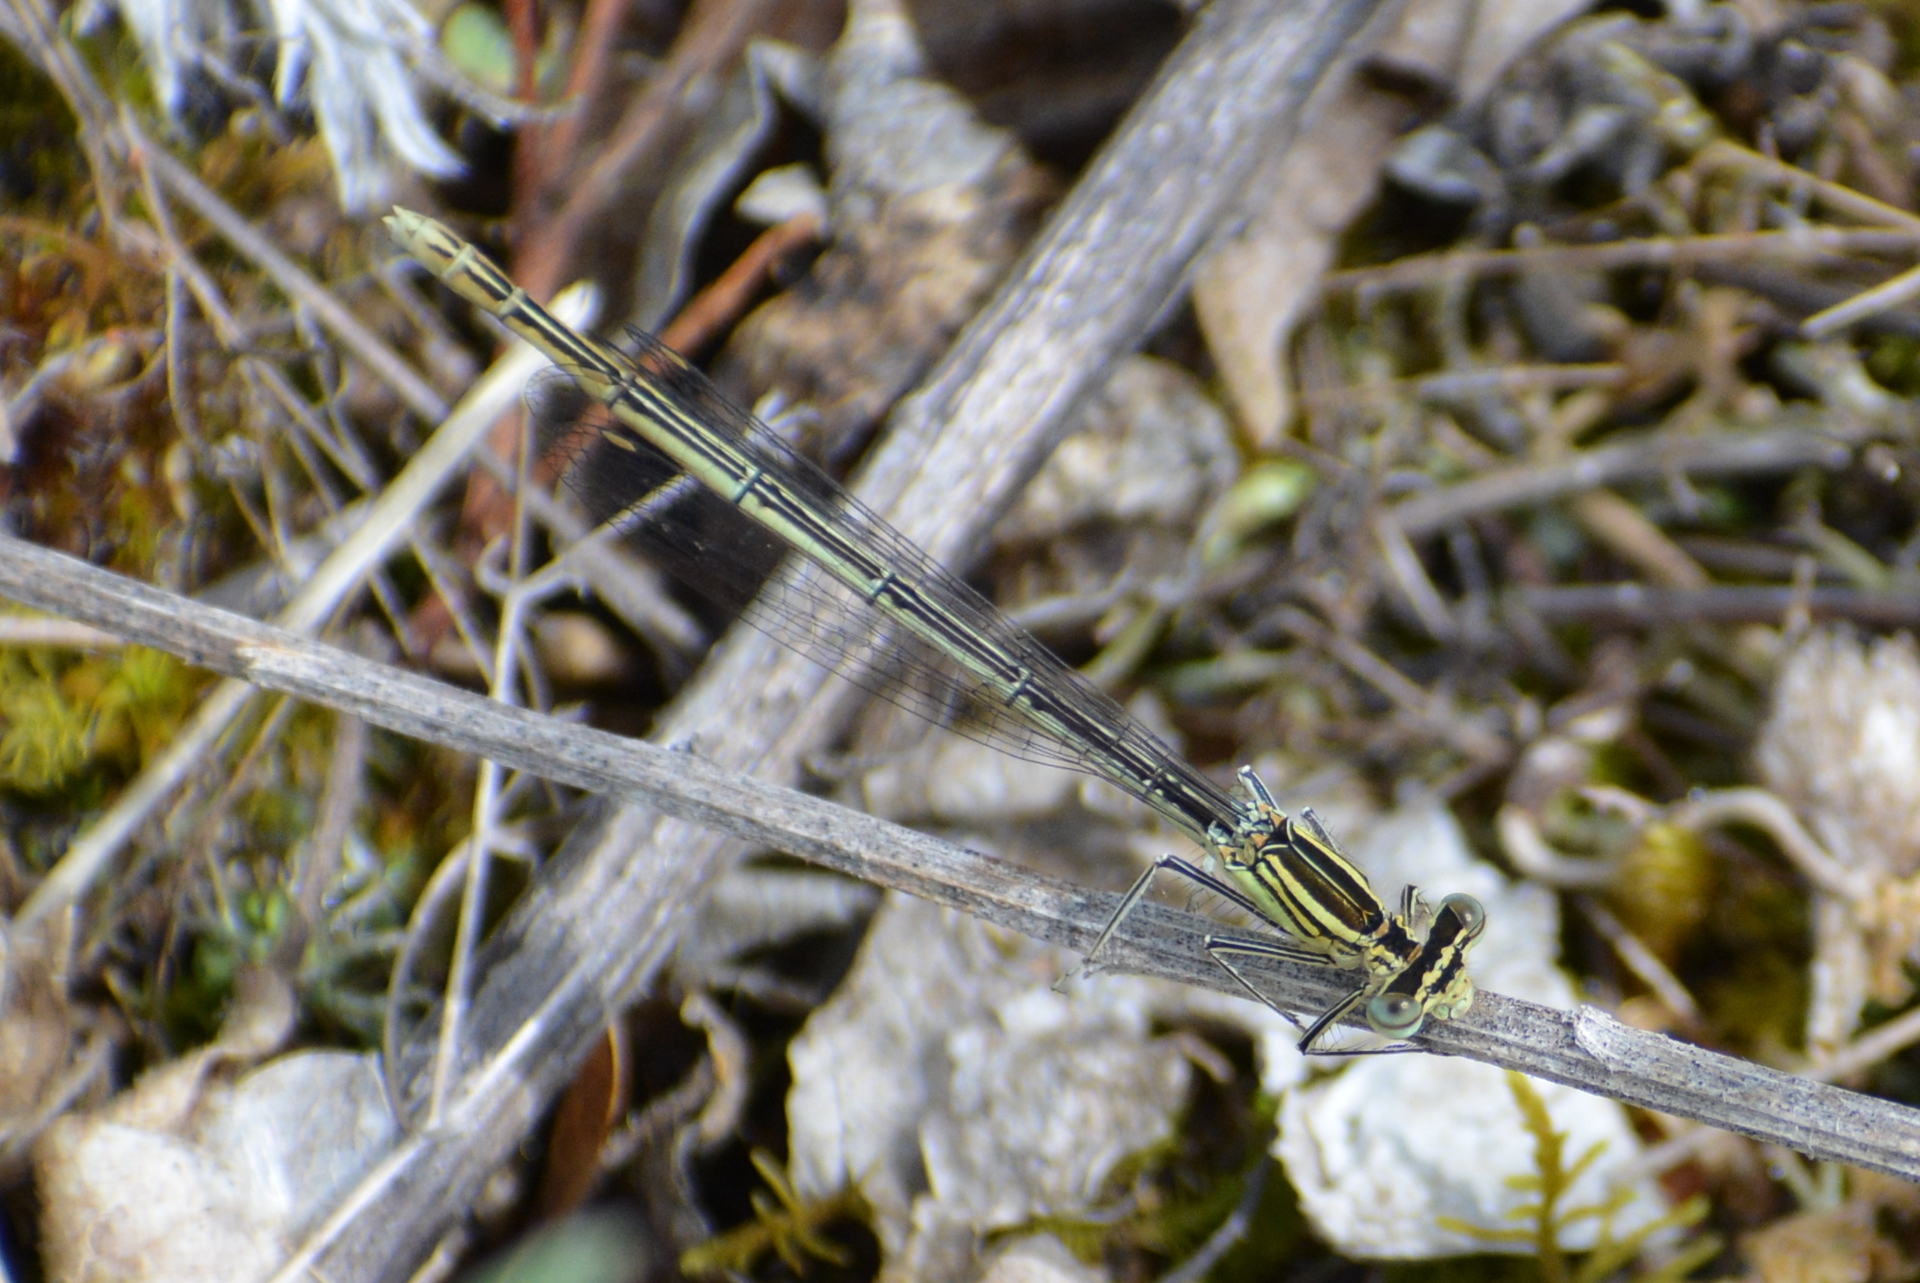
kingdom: Animalia
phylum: Arthropoda
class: Insecta
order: Odonata
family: Platycnemididae
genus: Platycnemis
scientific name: Platycnemis pennipes
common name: White-legged damselfly
